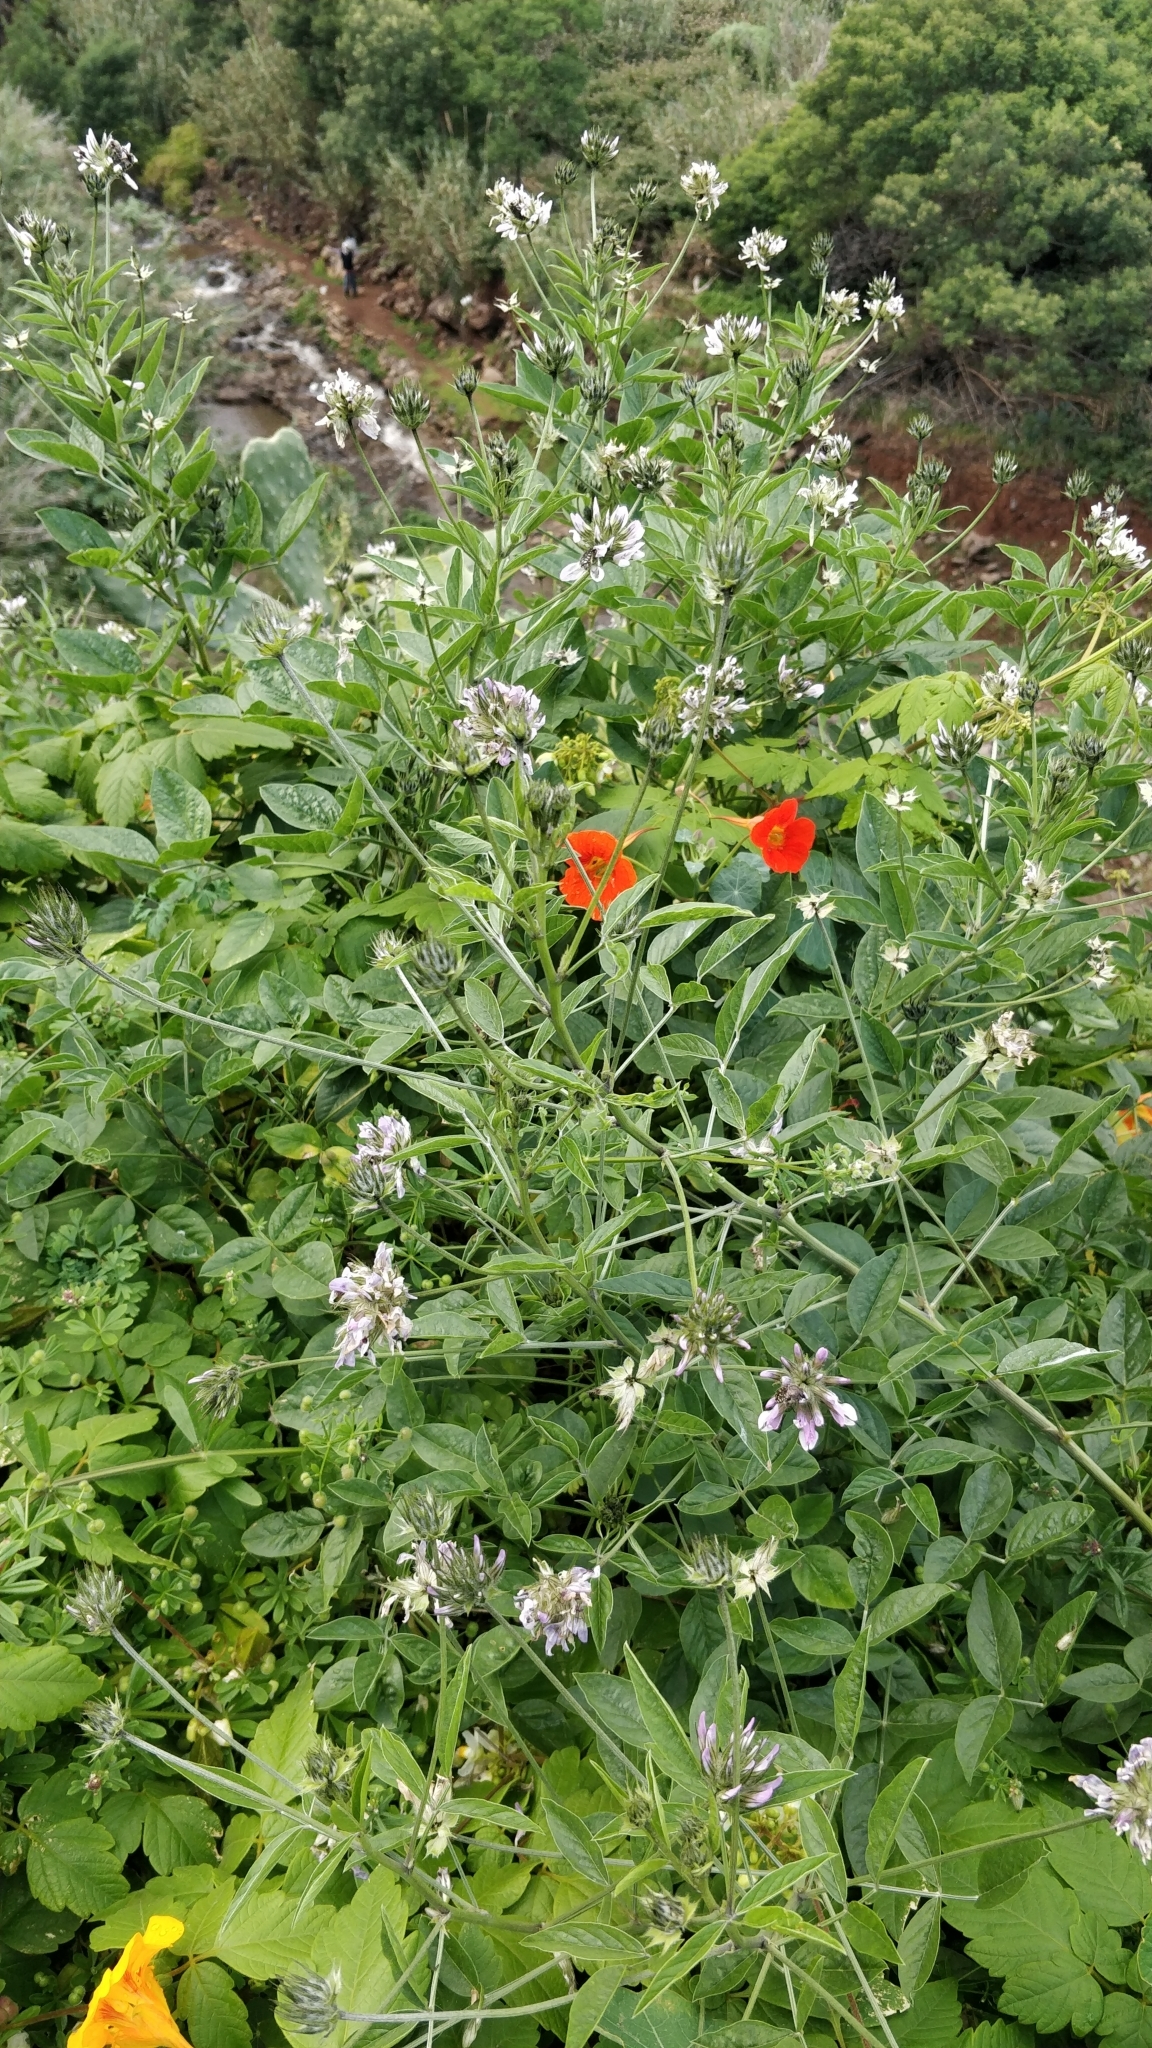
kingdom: Plantae
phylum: Tracheophyta
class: Magnoliopsida
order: Fabales
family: Fabaceae
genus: Bituminaria
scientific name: Bituminaria bituminosa
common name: Arabian pea
